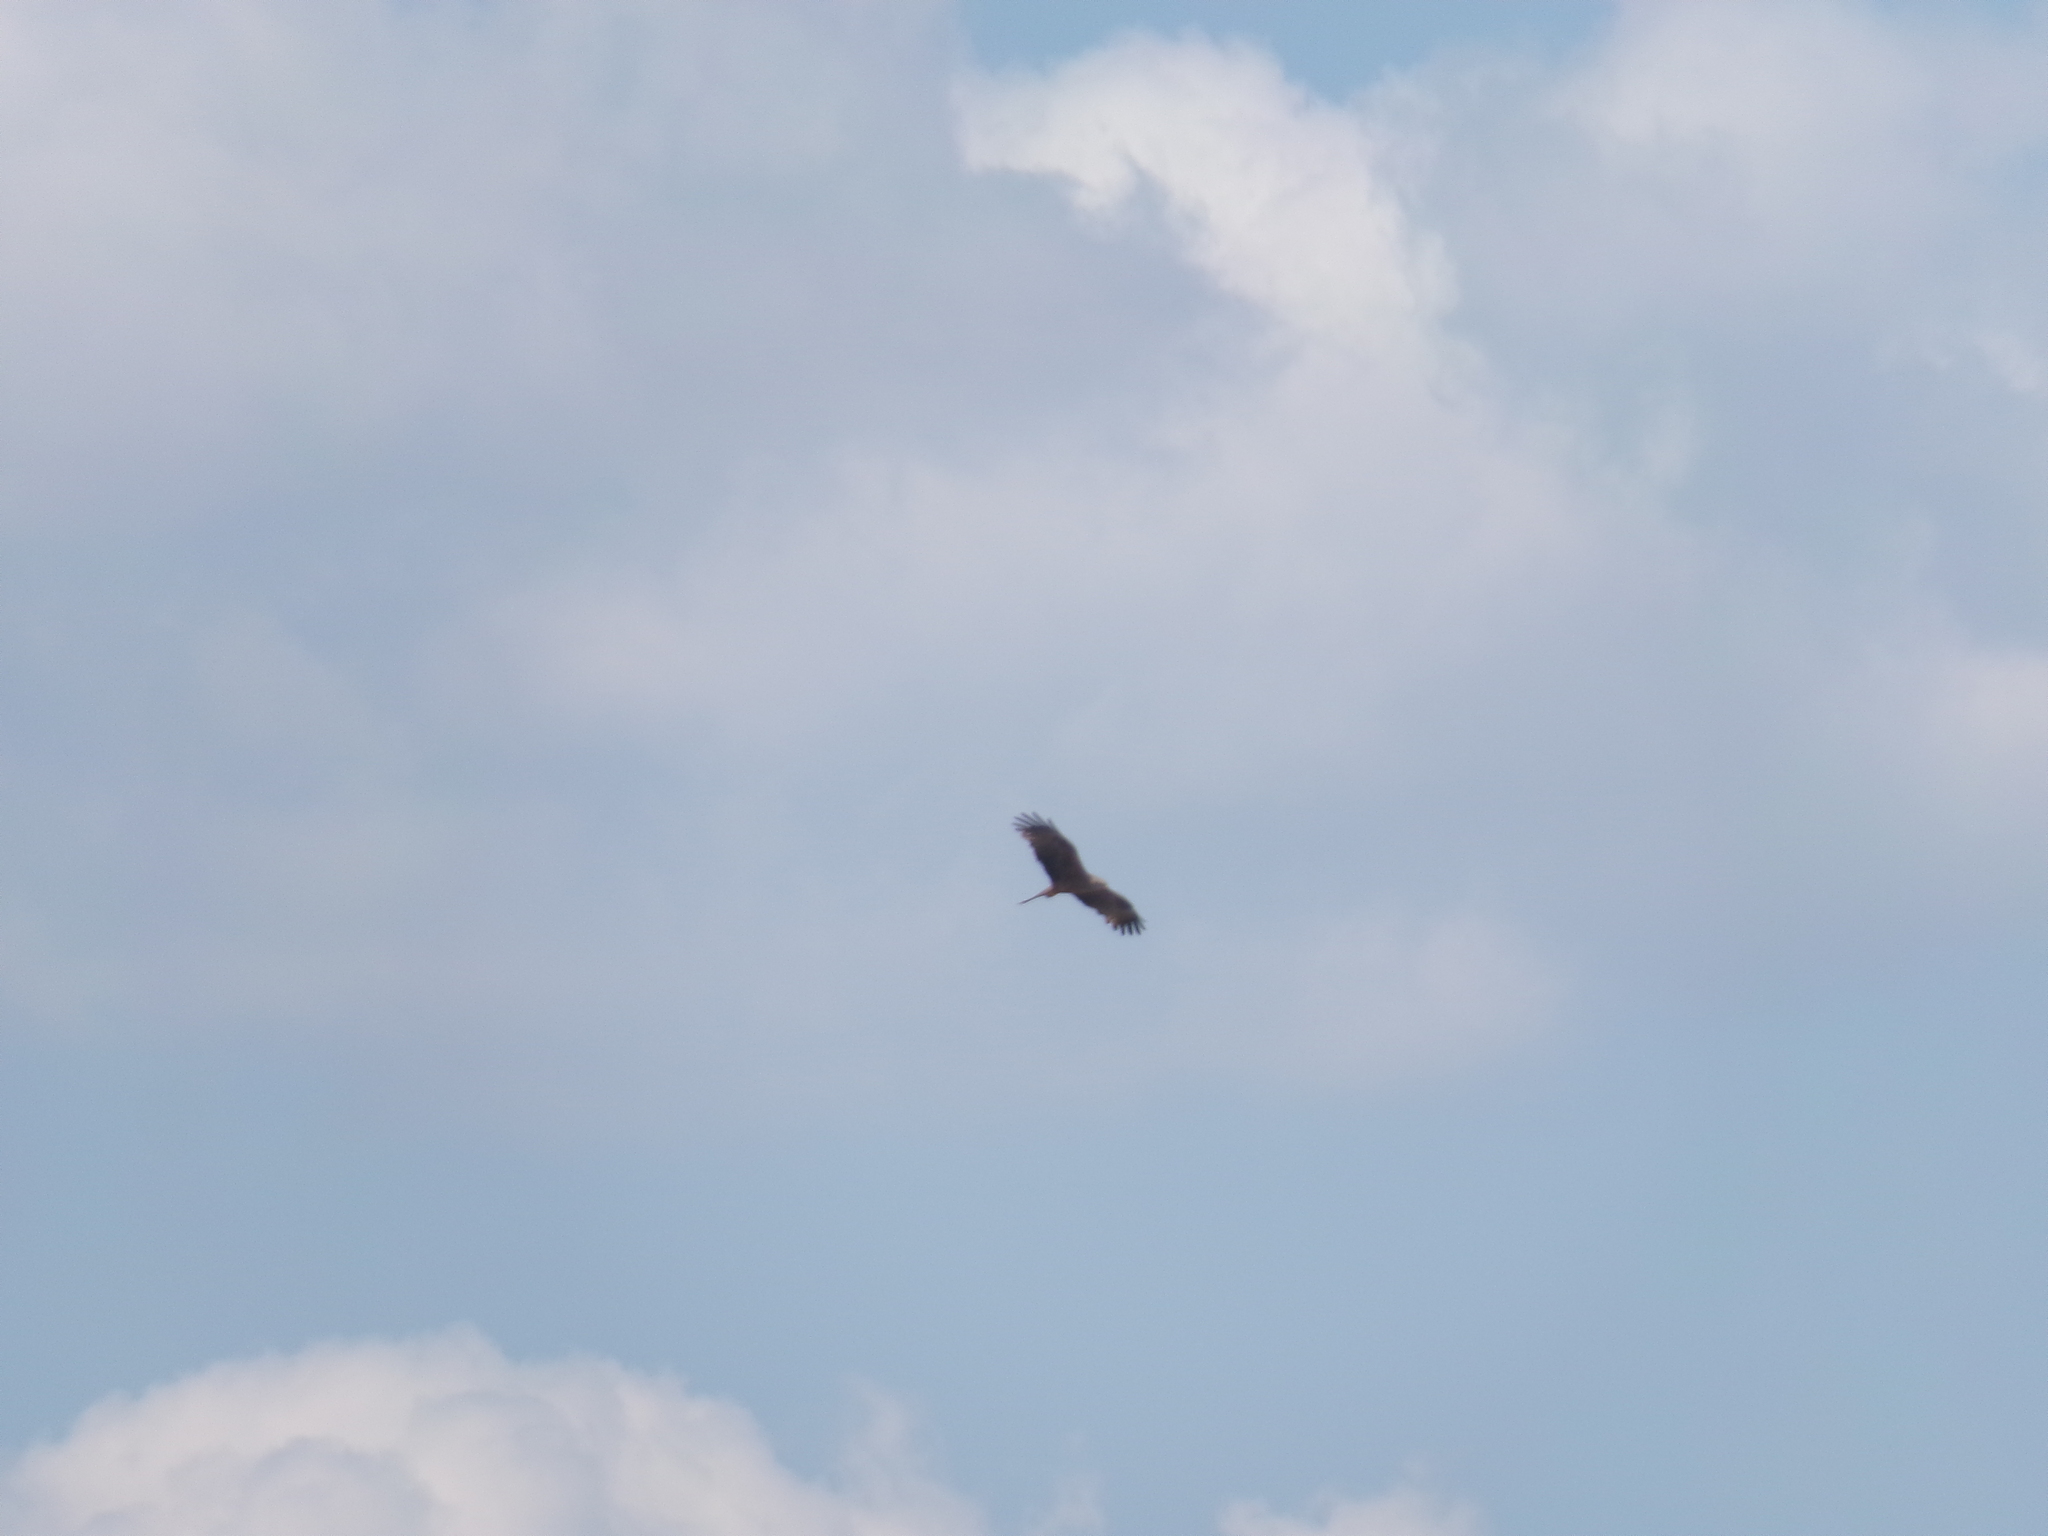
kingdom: Animalia
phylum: Chordata
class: Aves
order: Accipitriformes
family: Accipitridae
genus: Milvus
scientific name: Milvus migrans
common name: Black kite
